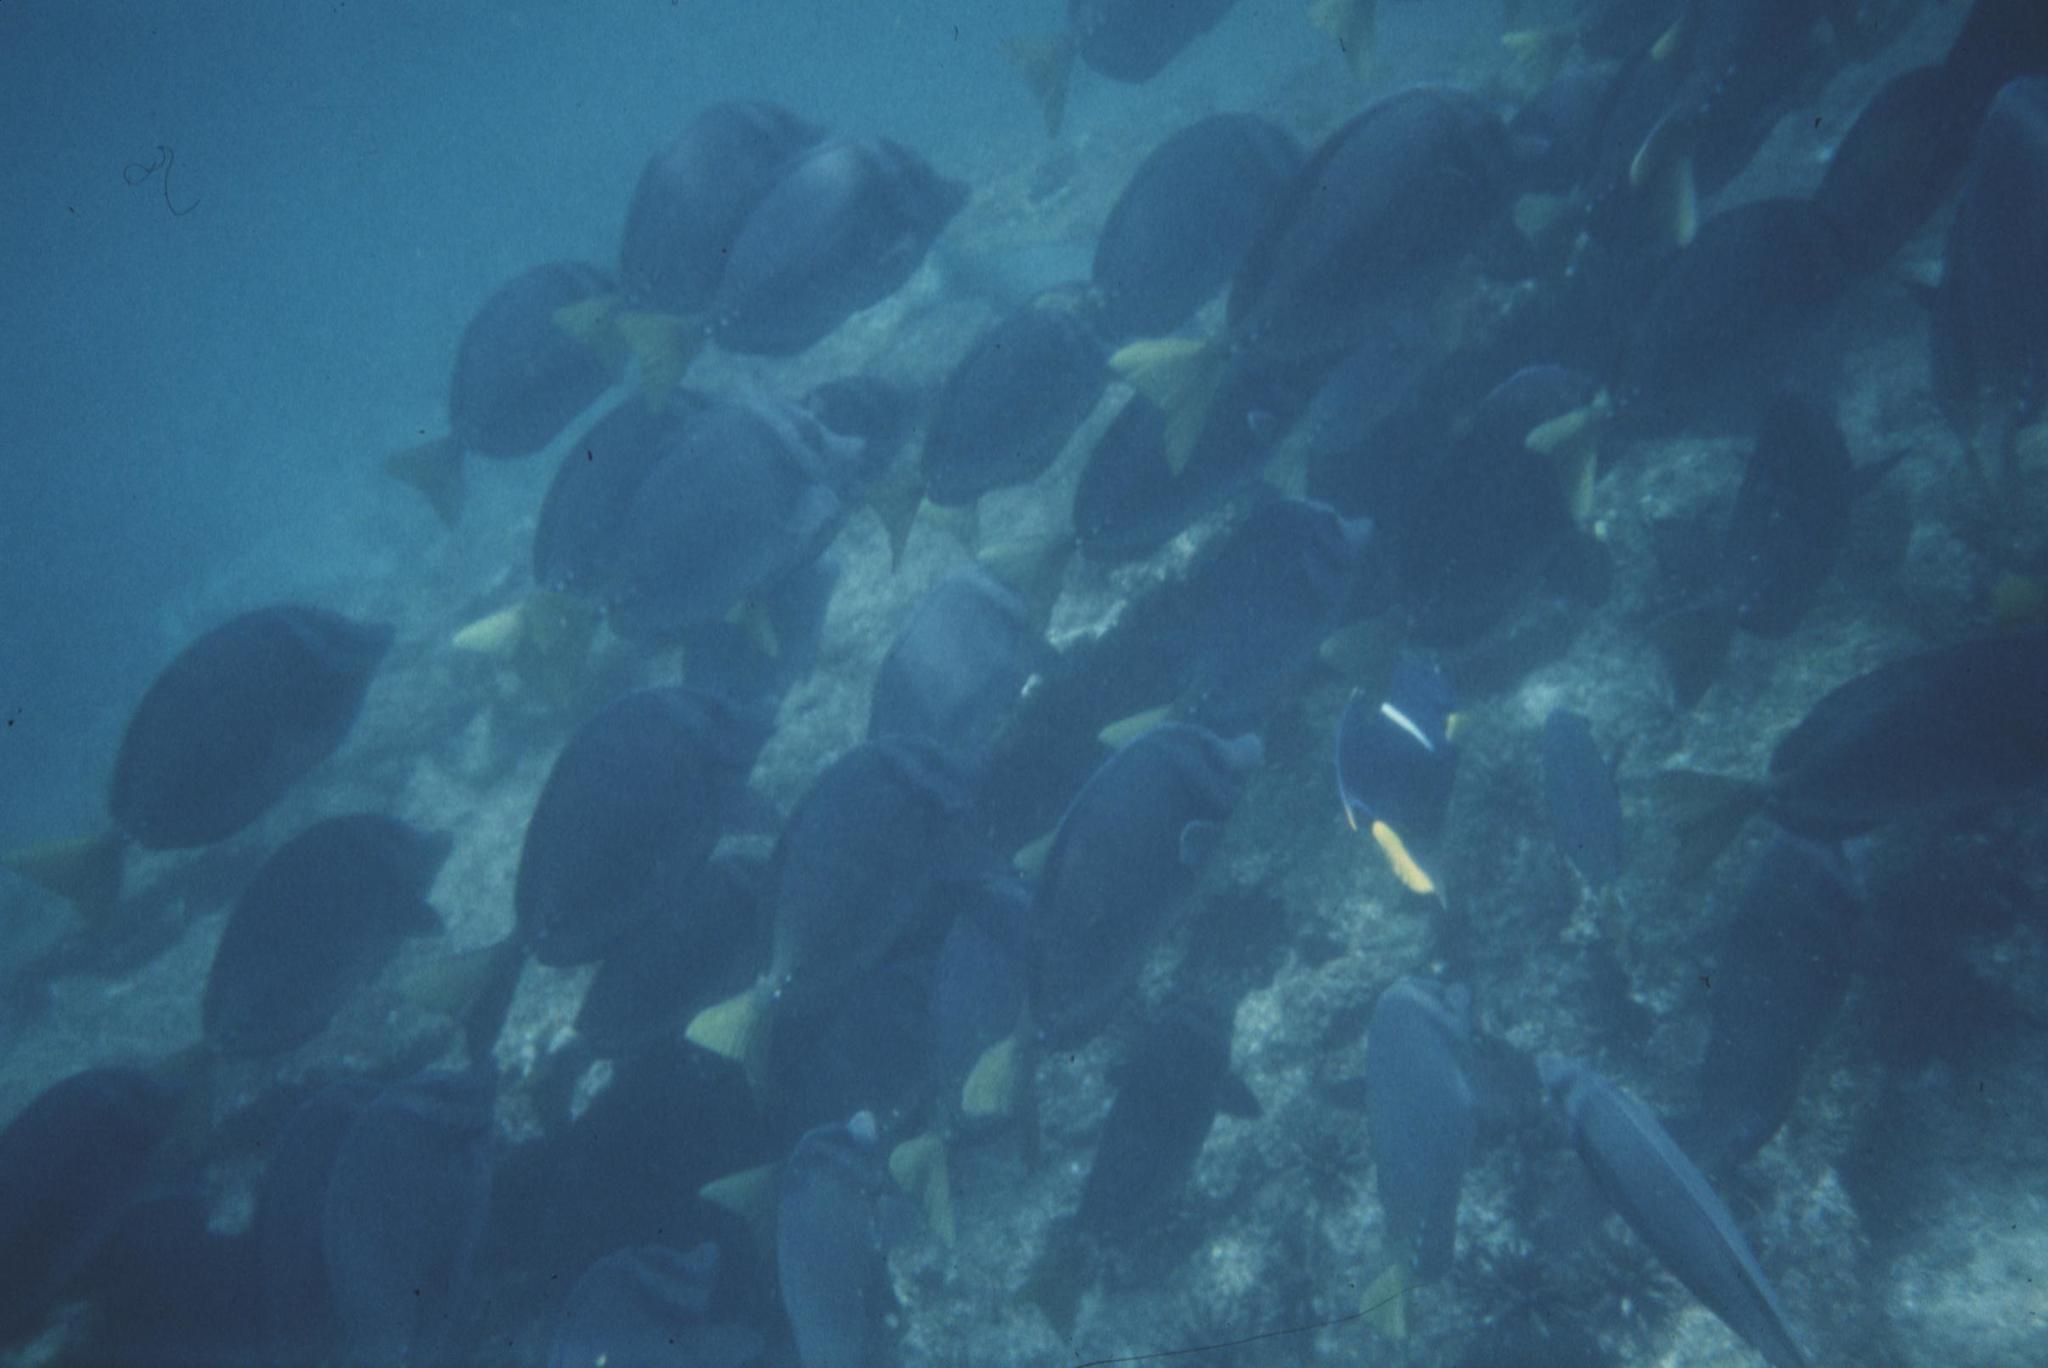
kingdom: Animalia
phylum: Chordata
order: Perciformes
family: Acanthuridae
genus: Prionurus
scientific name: Prionurus laticlavius
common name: Razor surgeonfish
